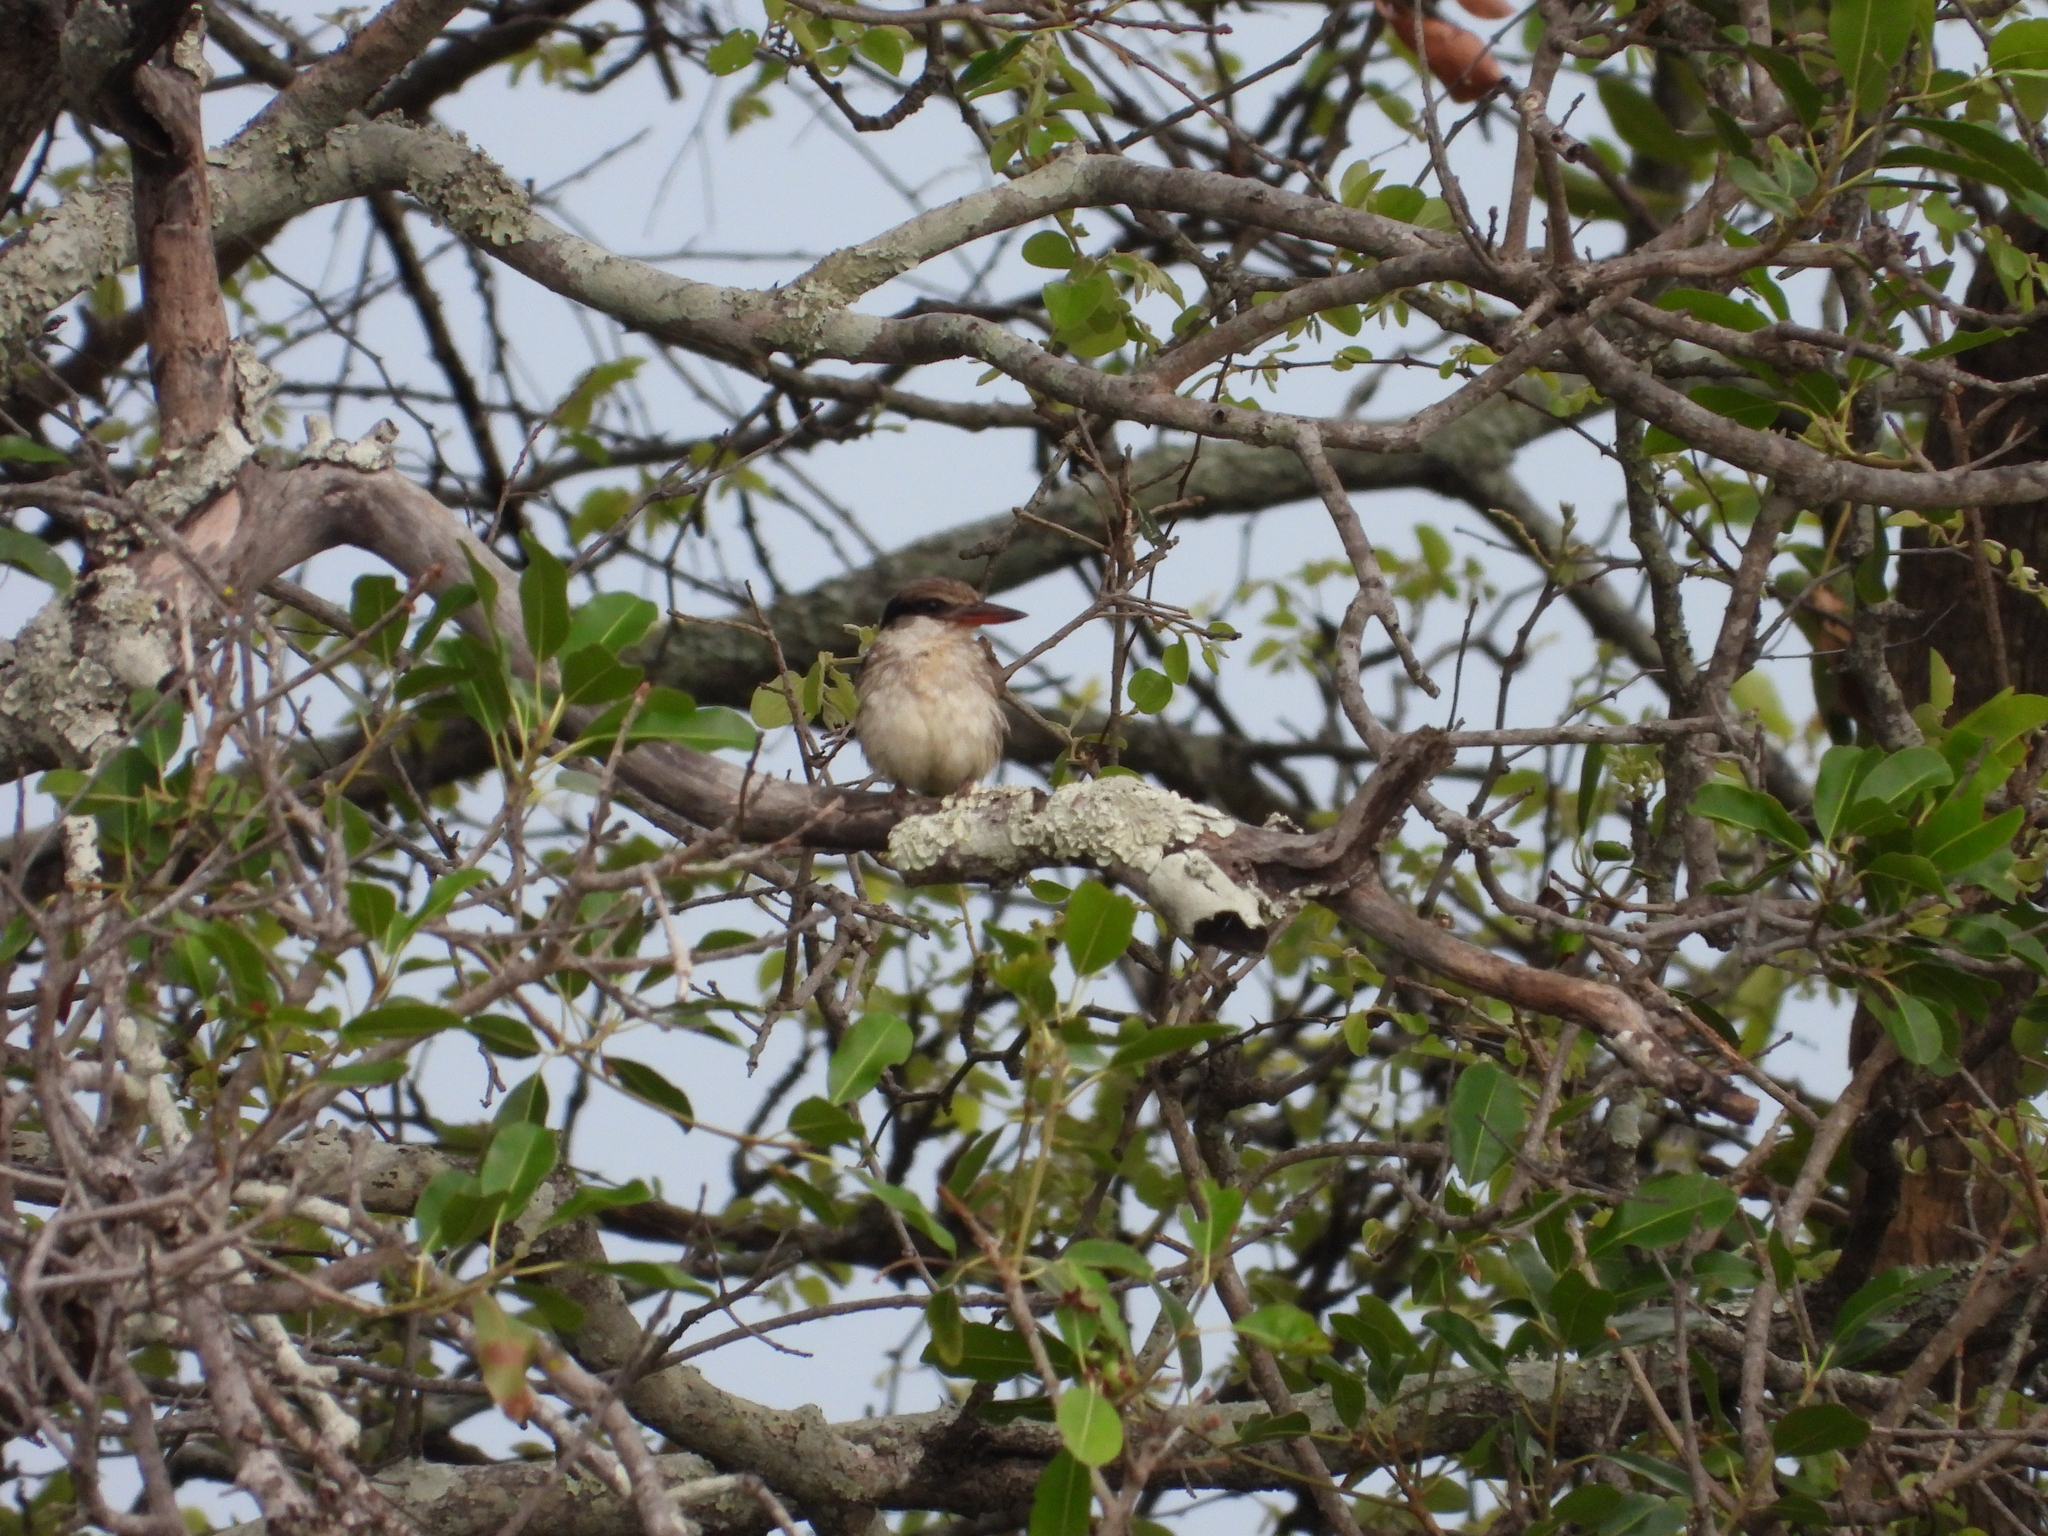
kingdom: Animalia
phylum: Chordata
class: Aves
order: Coraciiformes
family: Alcedinidae
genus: Halcyon
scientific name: Halcyon chelicuti
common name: Striped kingfisher
